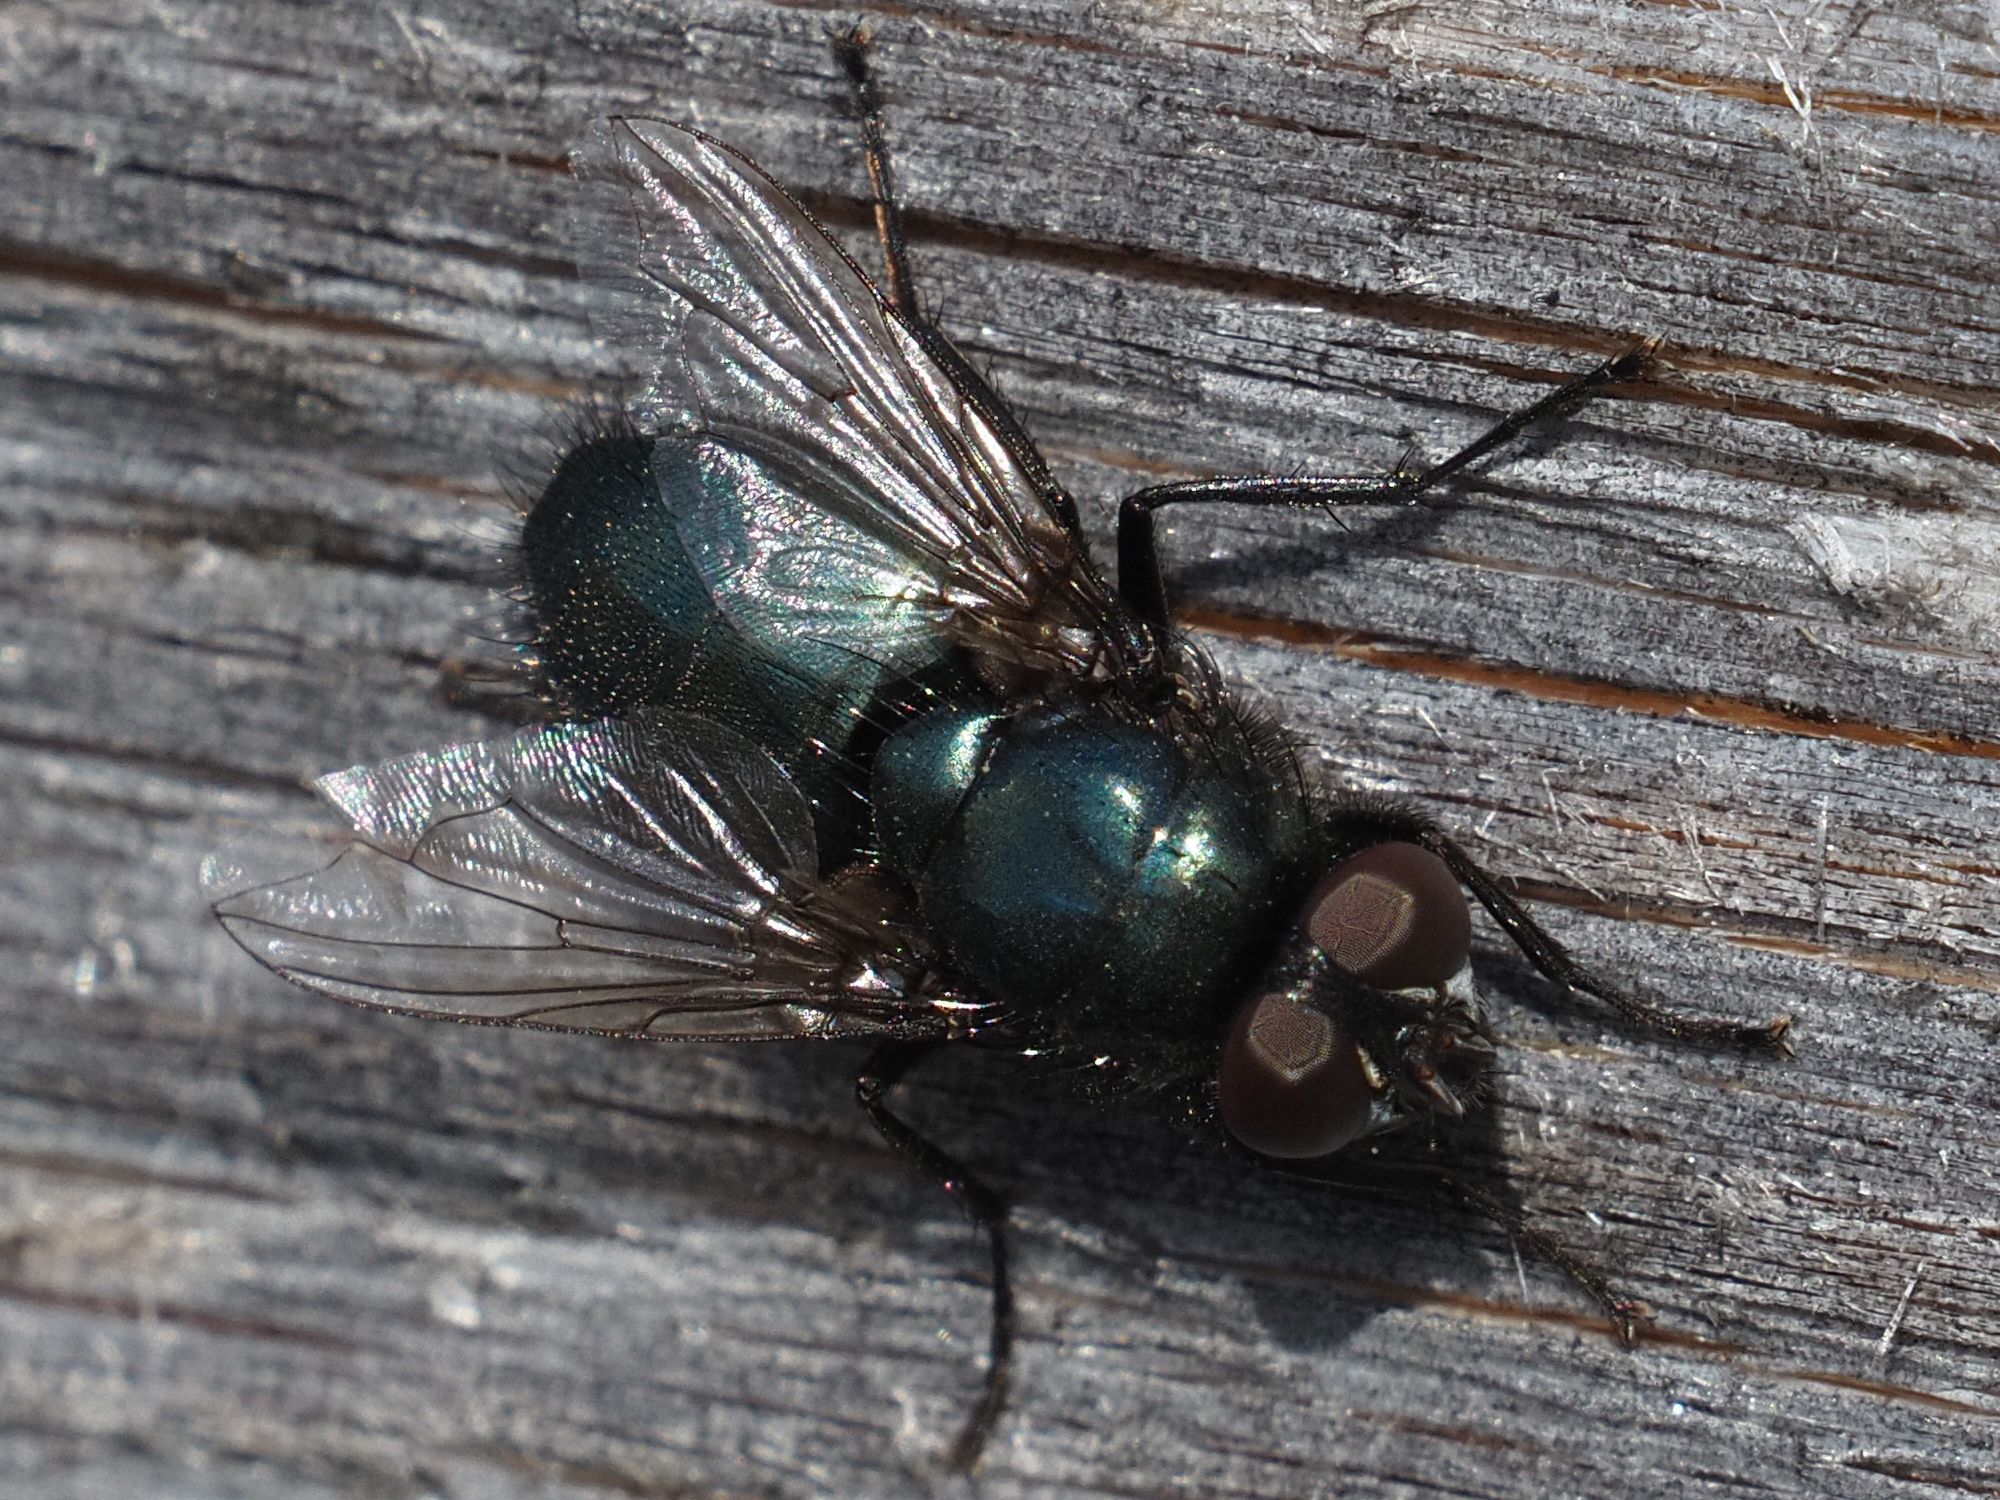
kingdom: Animalia
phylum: Arthropoda
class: Insecta
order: Diptera
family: Calliphoridae
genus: Protophormia
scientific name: Protophormia terraenovae
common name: Blackbottle
